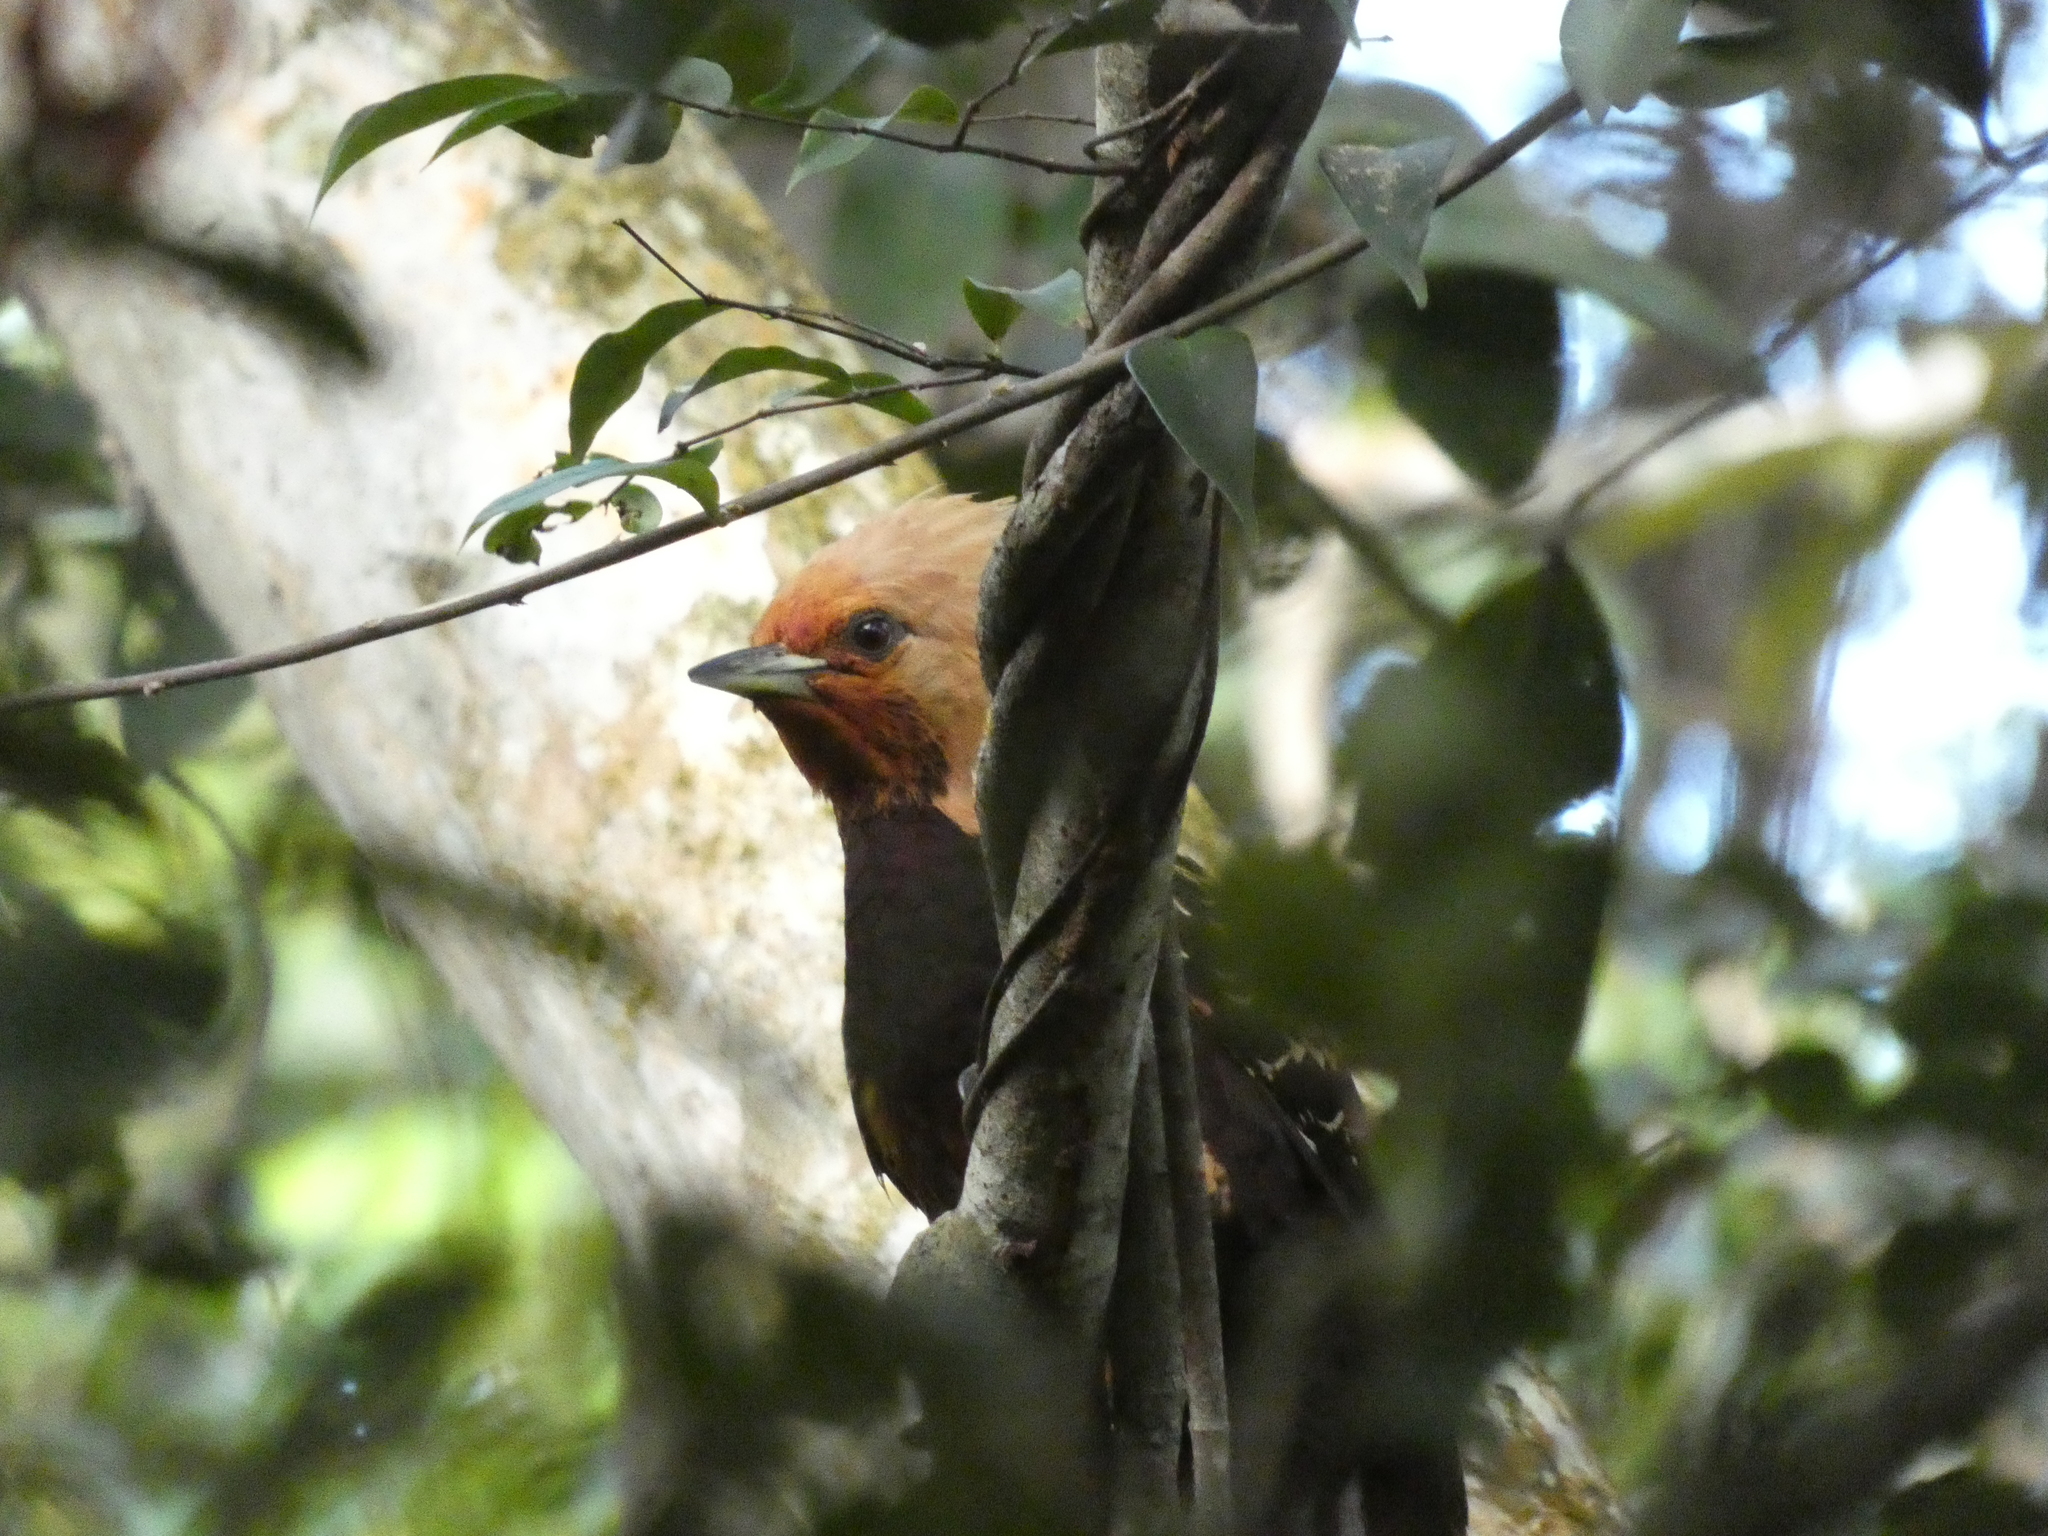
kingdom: Animalia
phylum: Chordata
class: Aves
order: Piciformes
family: Picidae
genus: Celeus
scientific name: Celeus flavescens
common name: Blond-crested woodpecker
